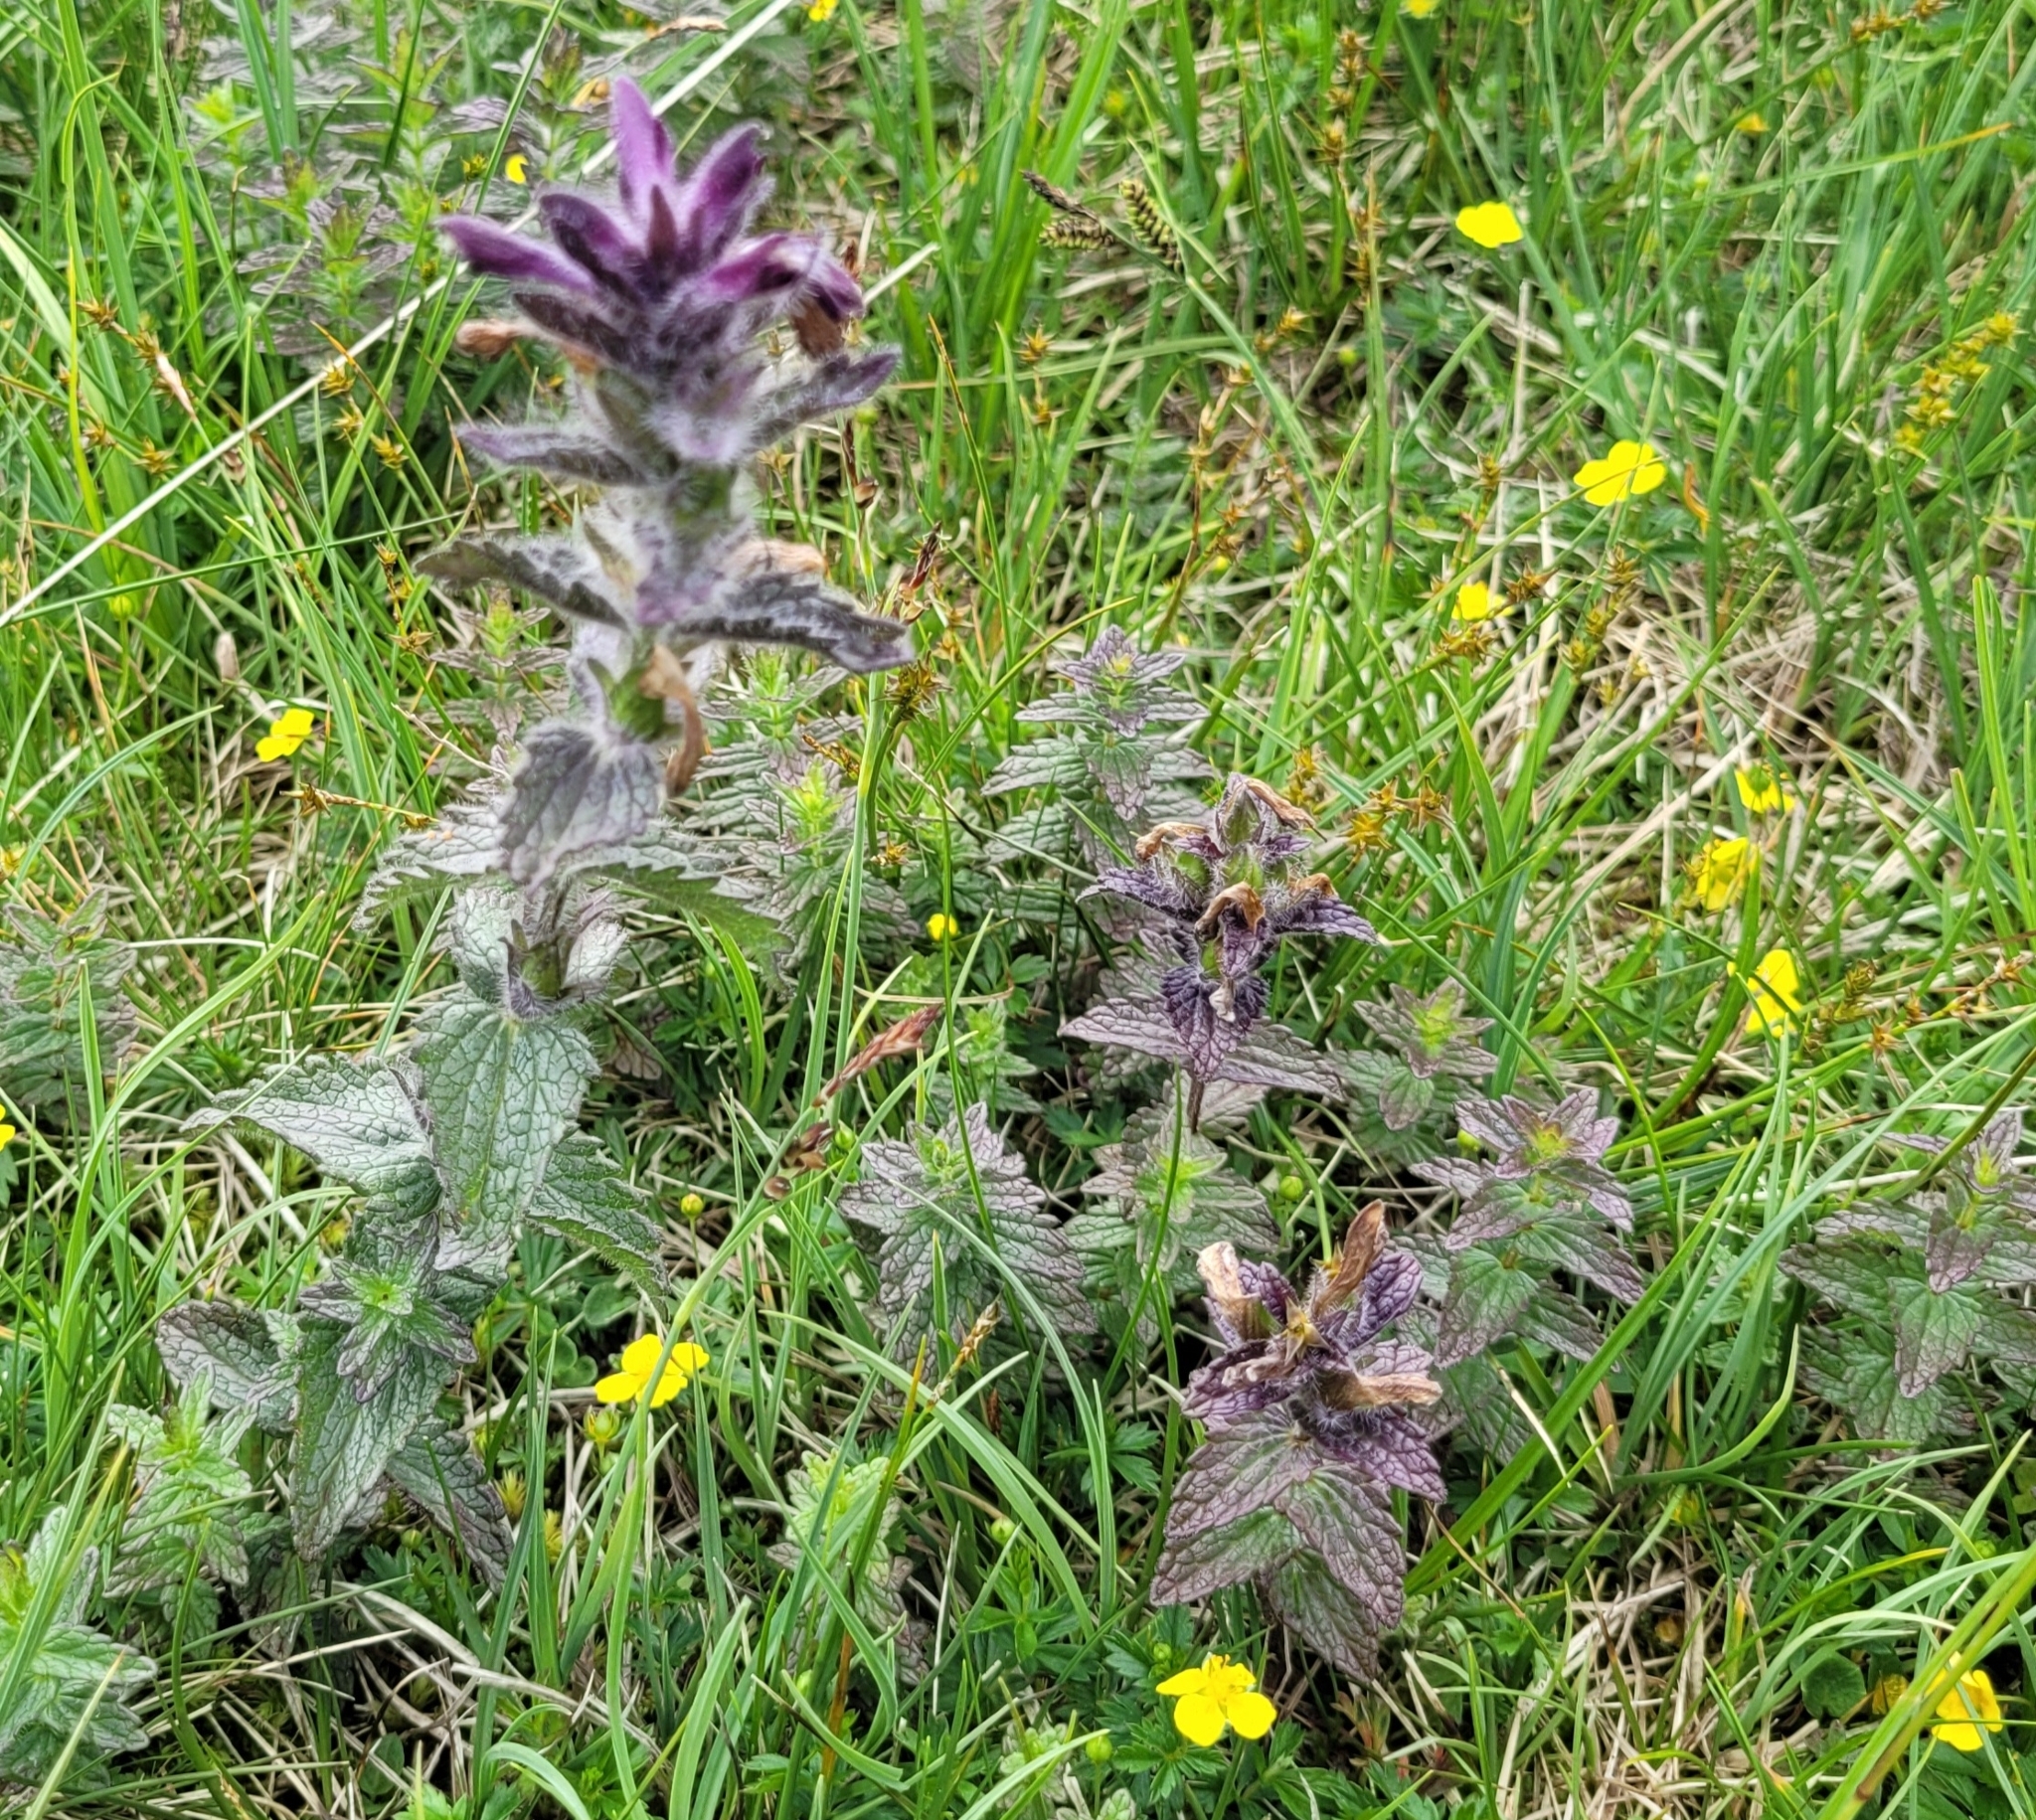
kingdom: Plantae
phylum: Tracheophyta
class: Magnoliopsida
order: Lamiales
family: Orobanchaceae
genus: Bartsia
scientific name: Bartsia alpina
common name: Alpine bartsia
